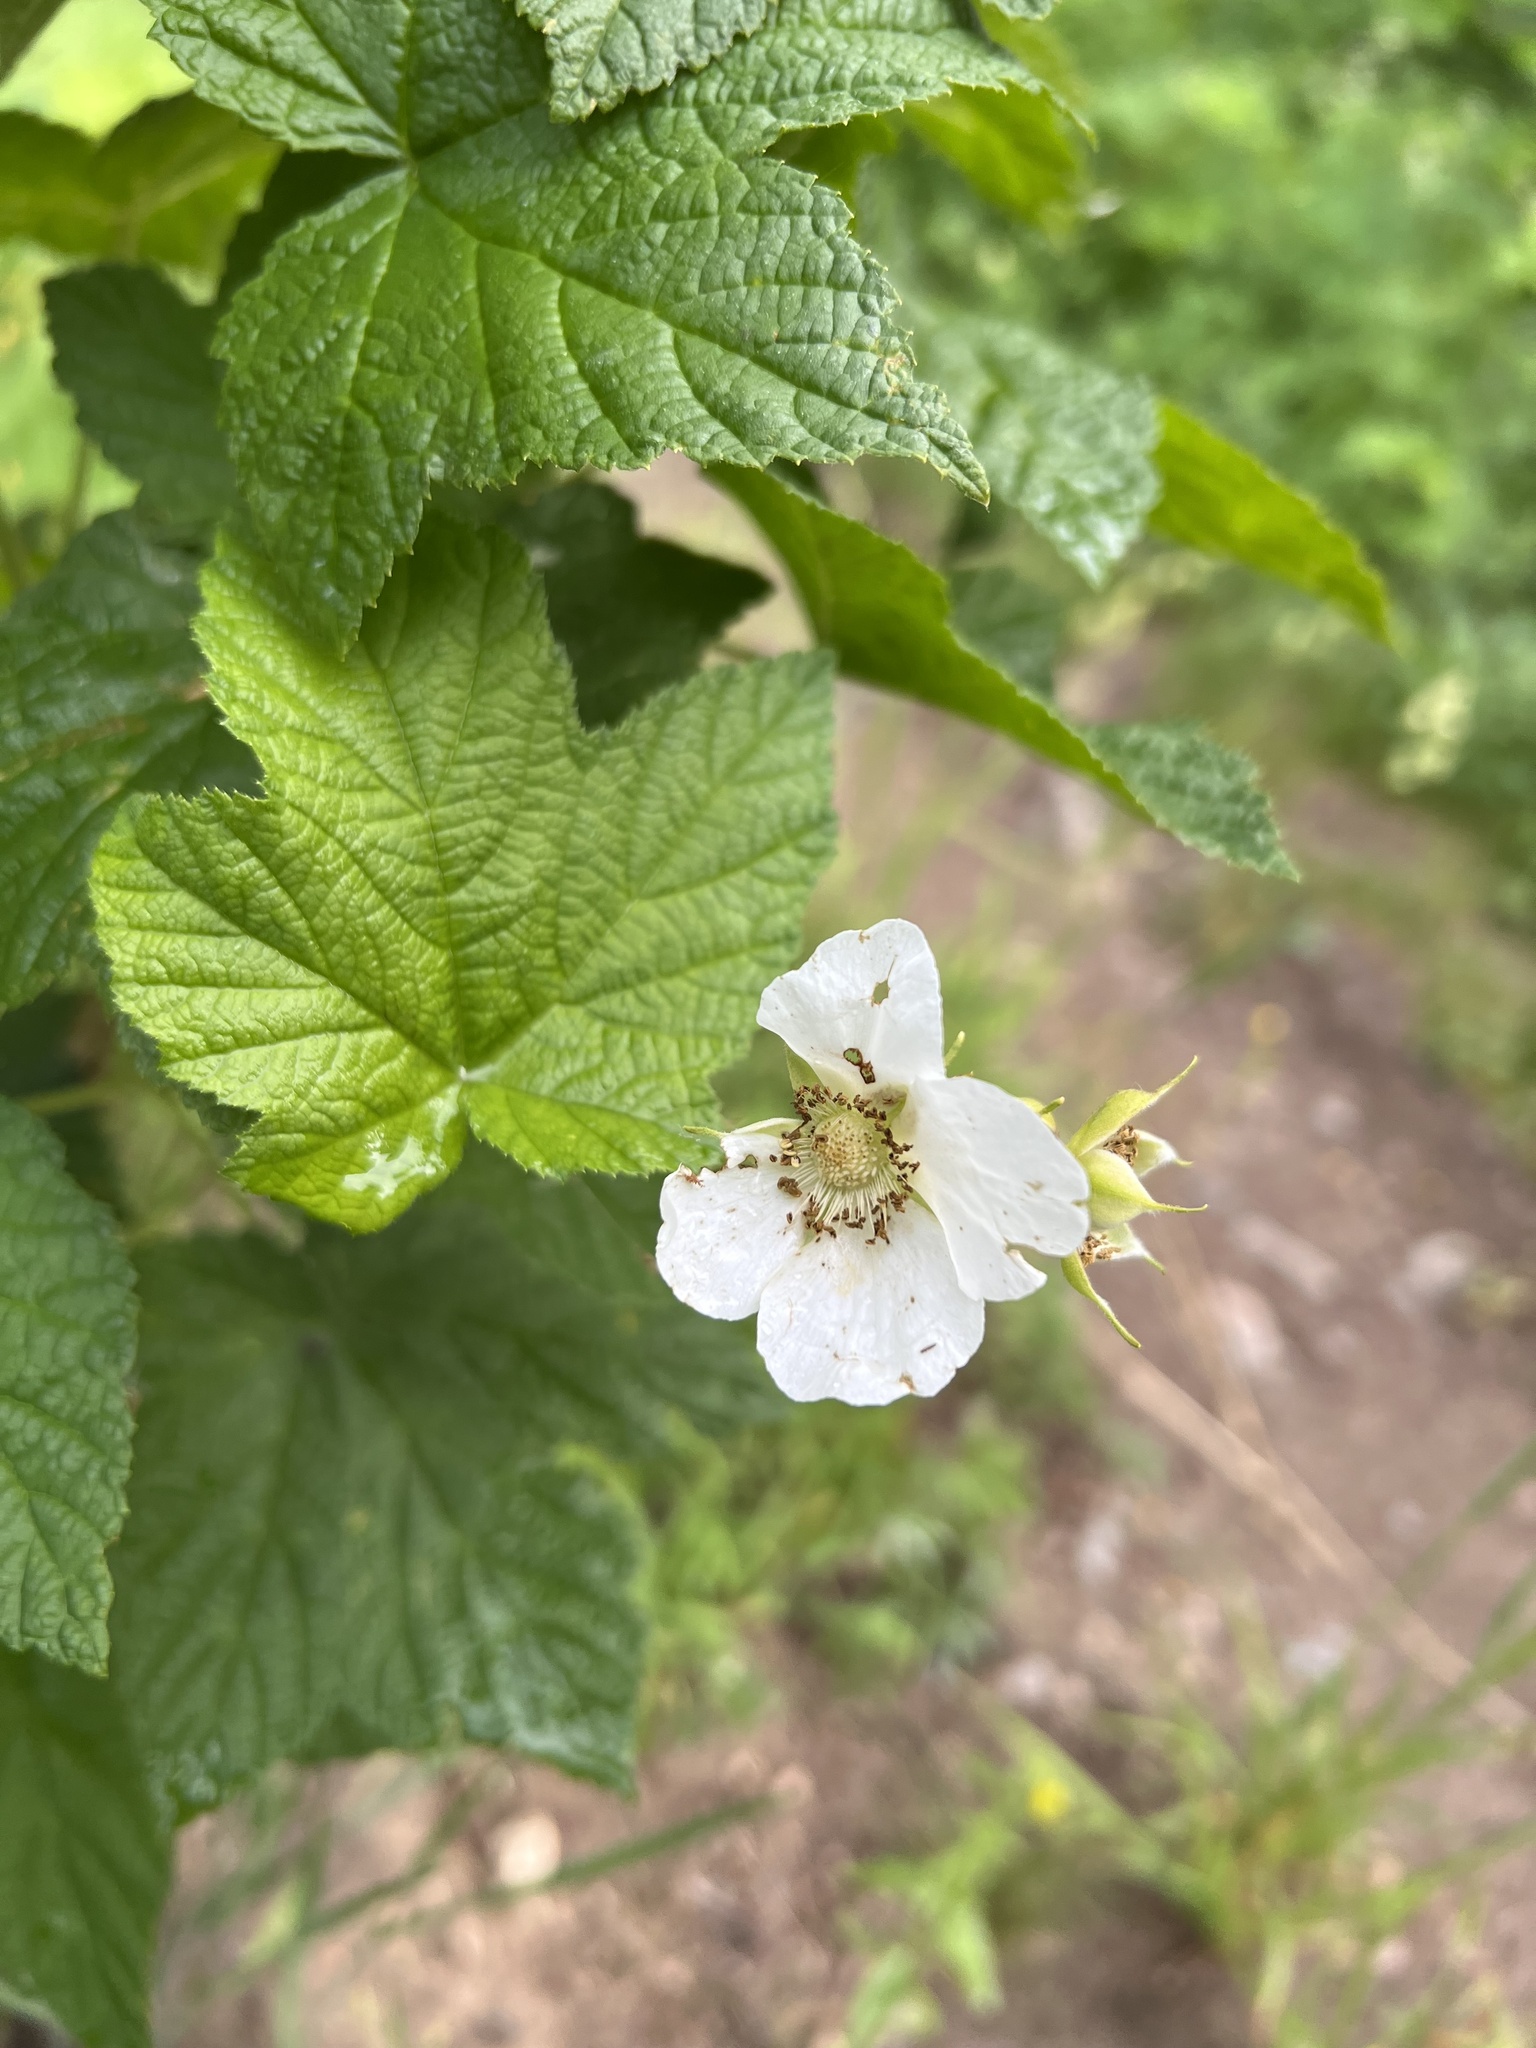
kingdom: Plantae
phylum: Tracheophyta
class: Magnoliopsida
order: Rosales
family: Rosaceae
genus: Rubus
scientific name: Rubus parviflorus
